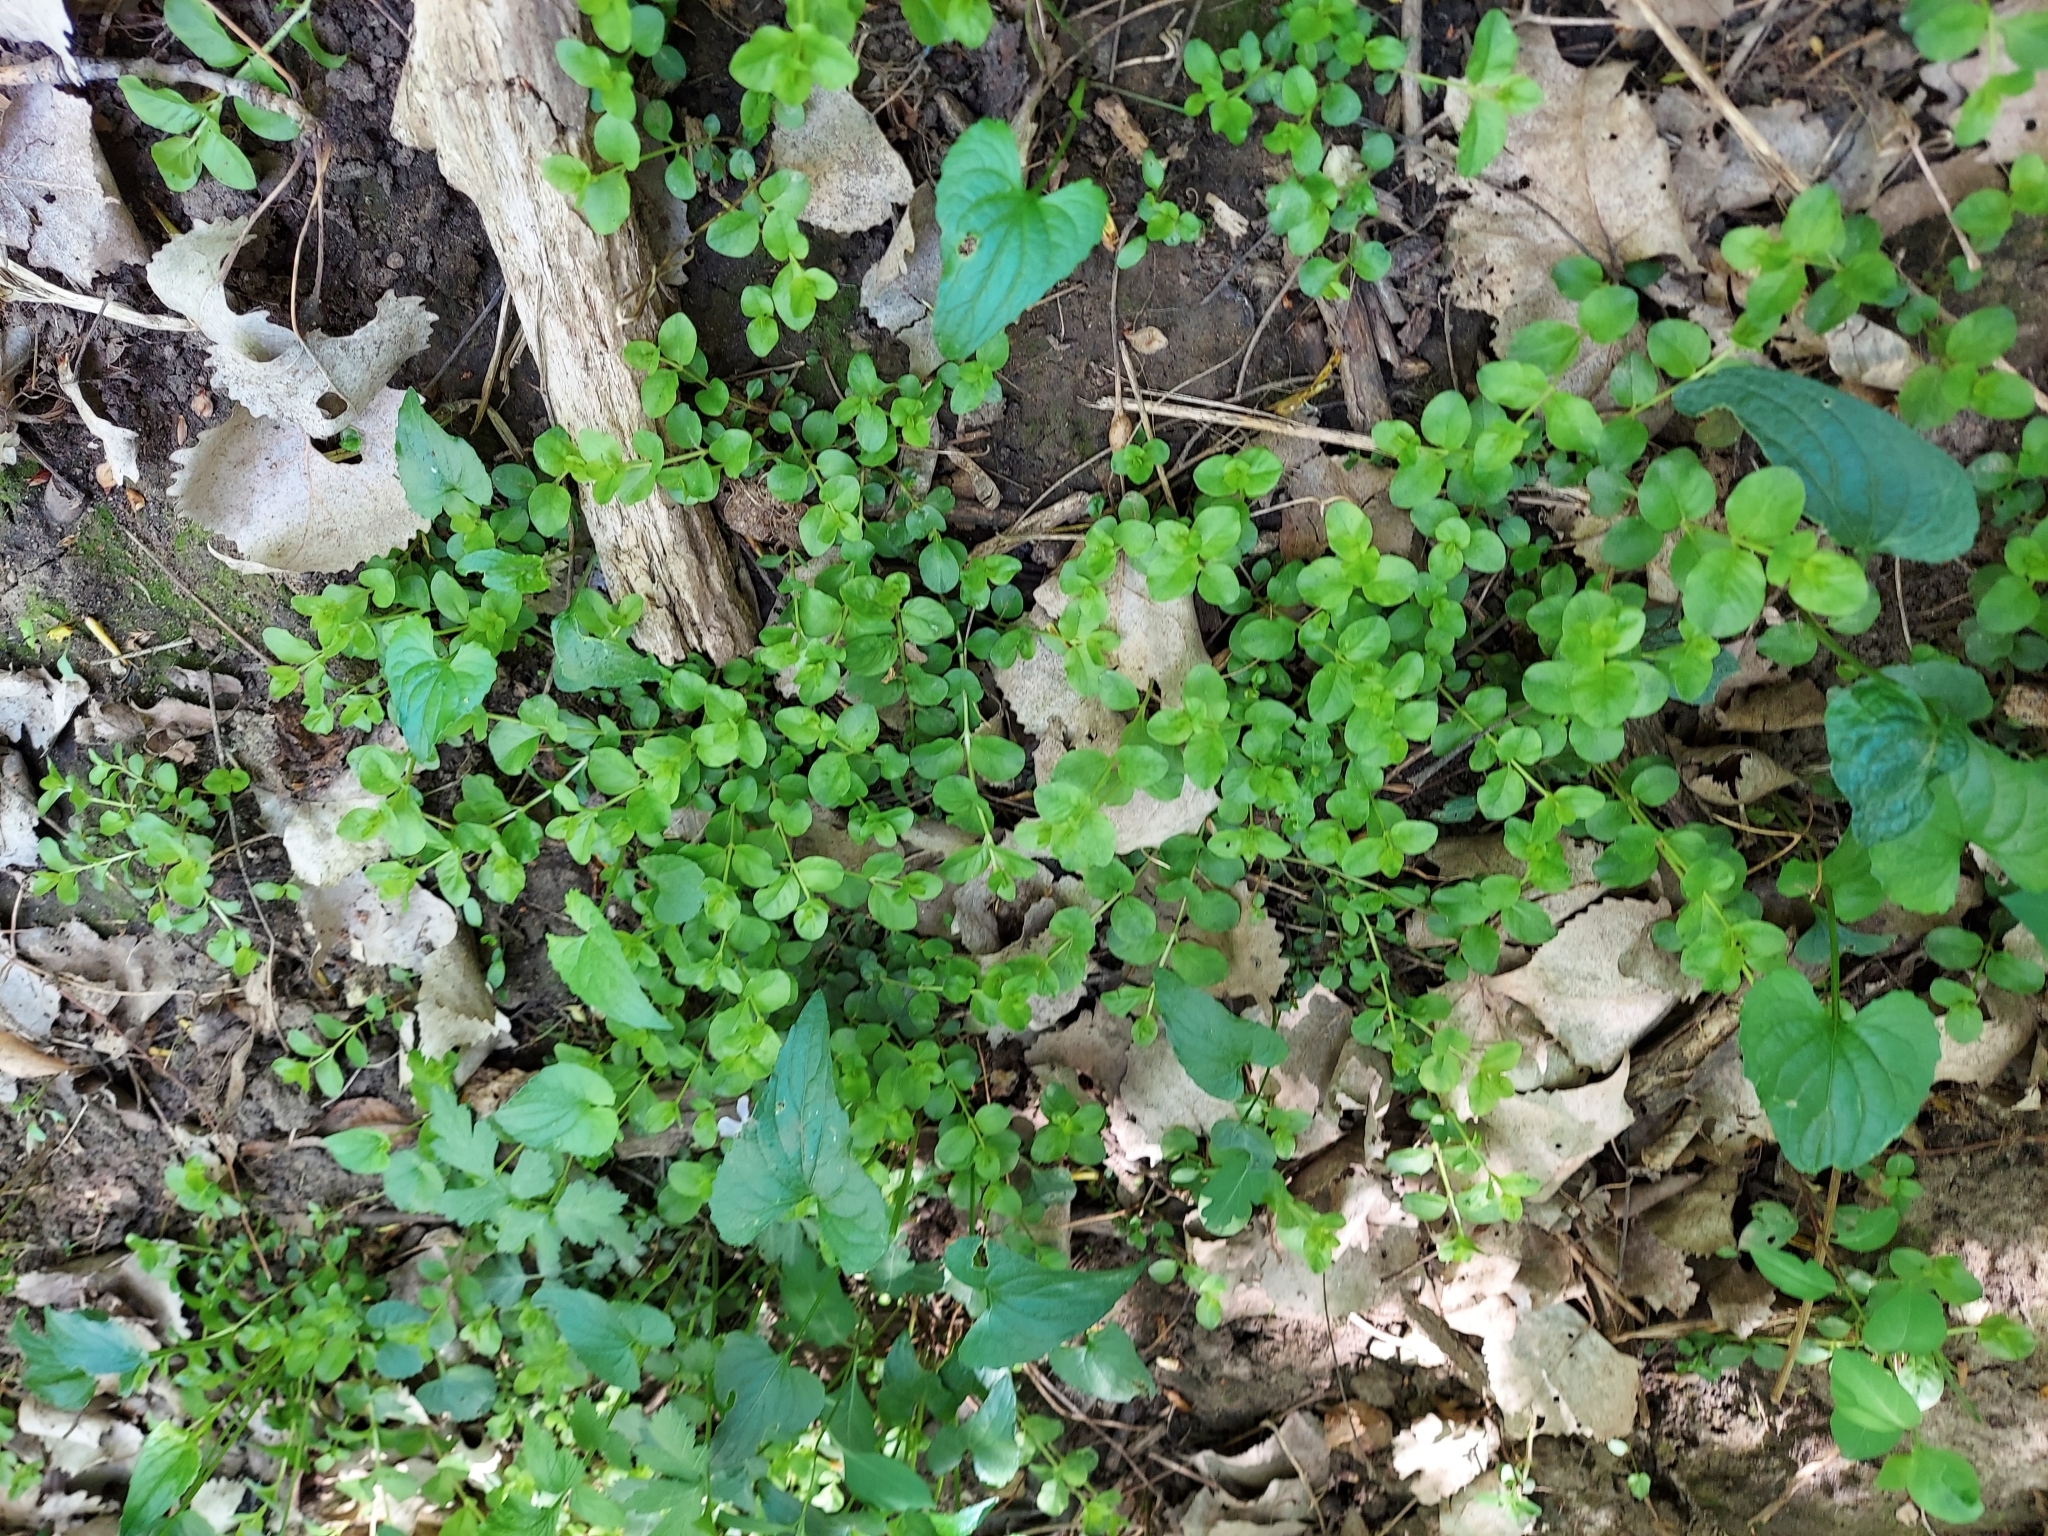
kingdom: Plantae
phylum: Tracheophyta
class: Magnoliopsida
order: Ericales
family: Primulaceae
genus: Lysimachia
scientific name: Lysimachia nummularia
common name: Moneywort
